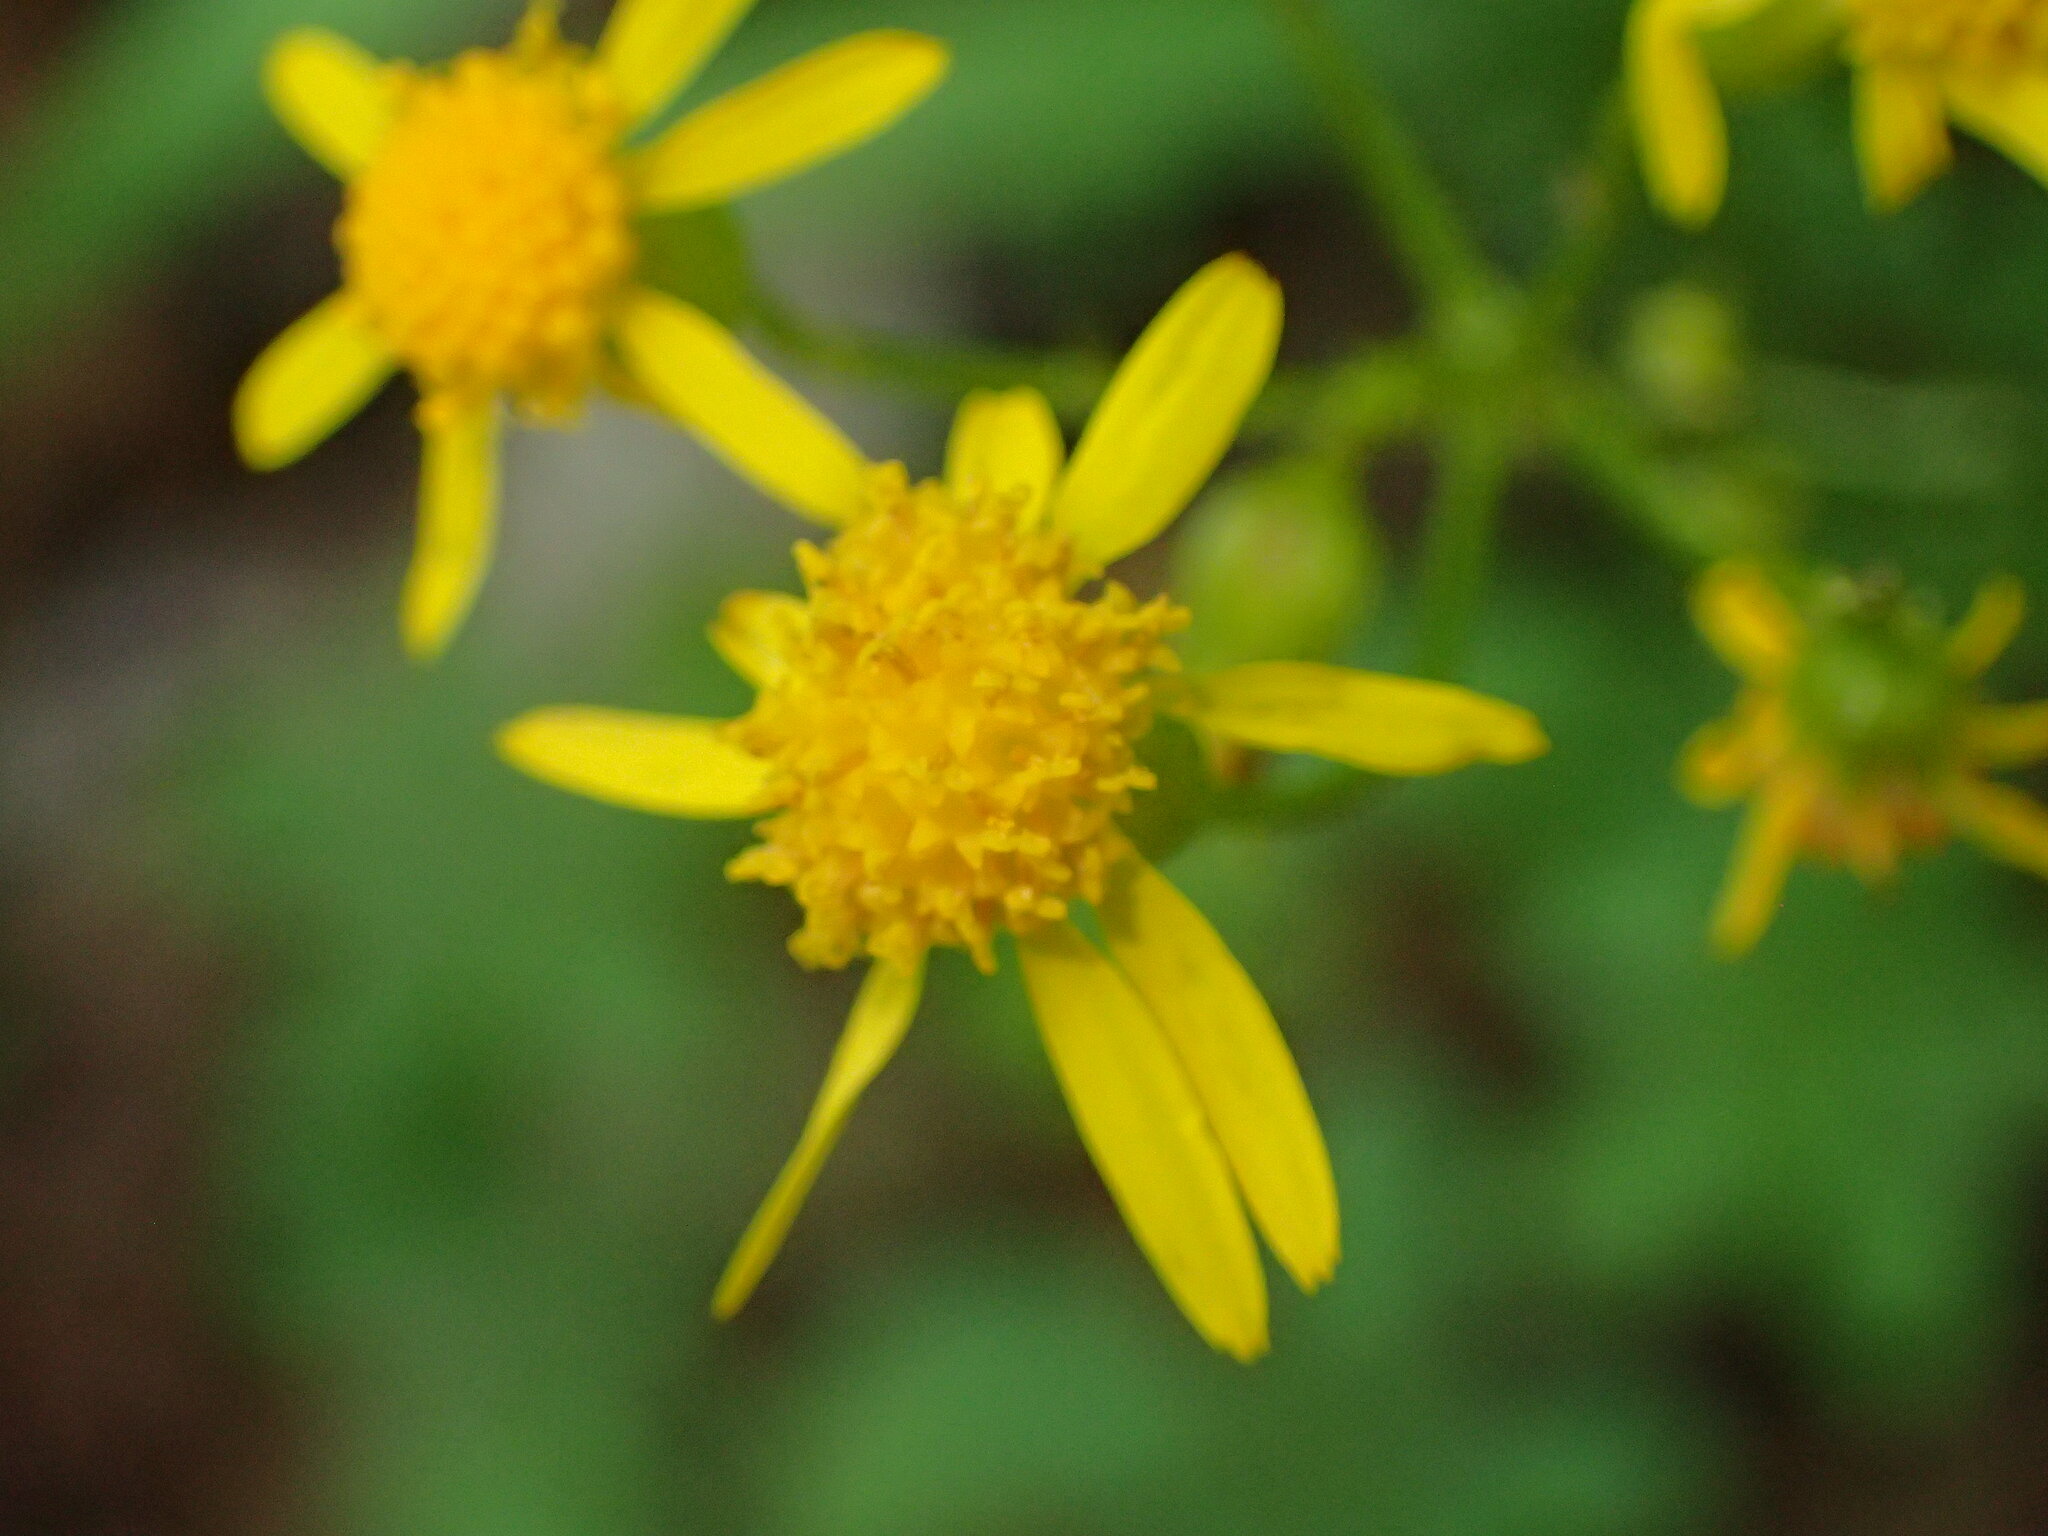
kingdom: Plantae
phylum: Tracheophyta
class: Magnoliopsida
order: Asterales
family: Asteraceae
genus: Packera
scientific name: Packera anonyma
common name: Small ragwort
